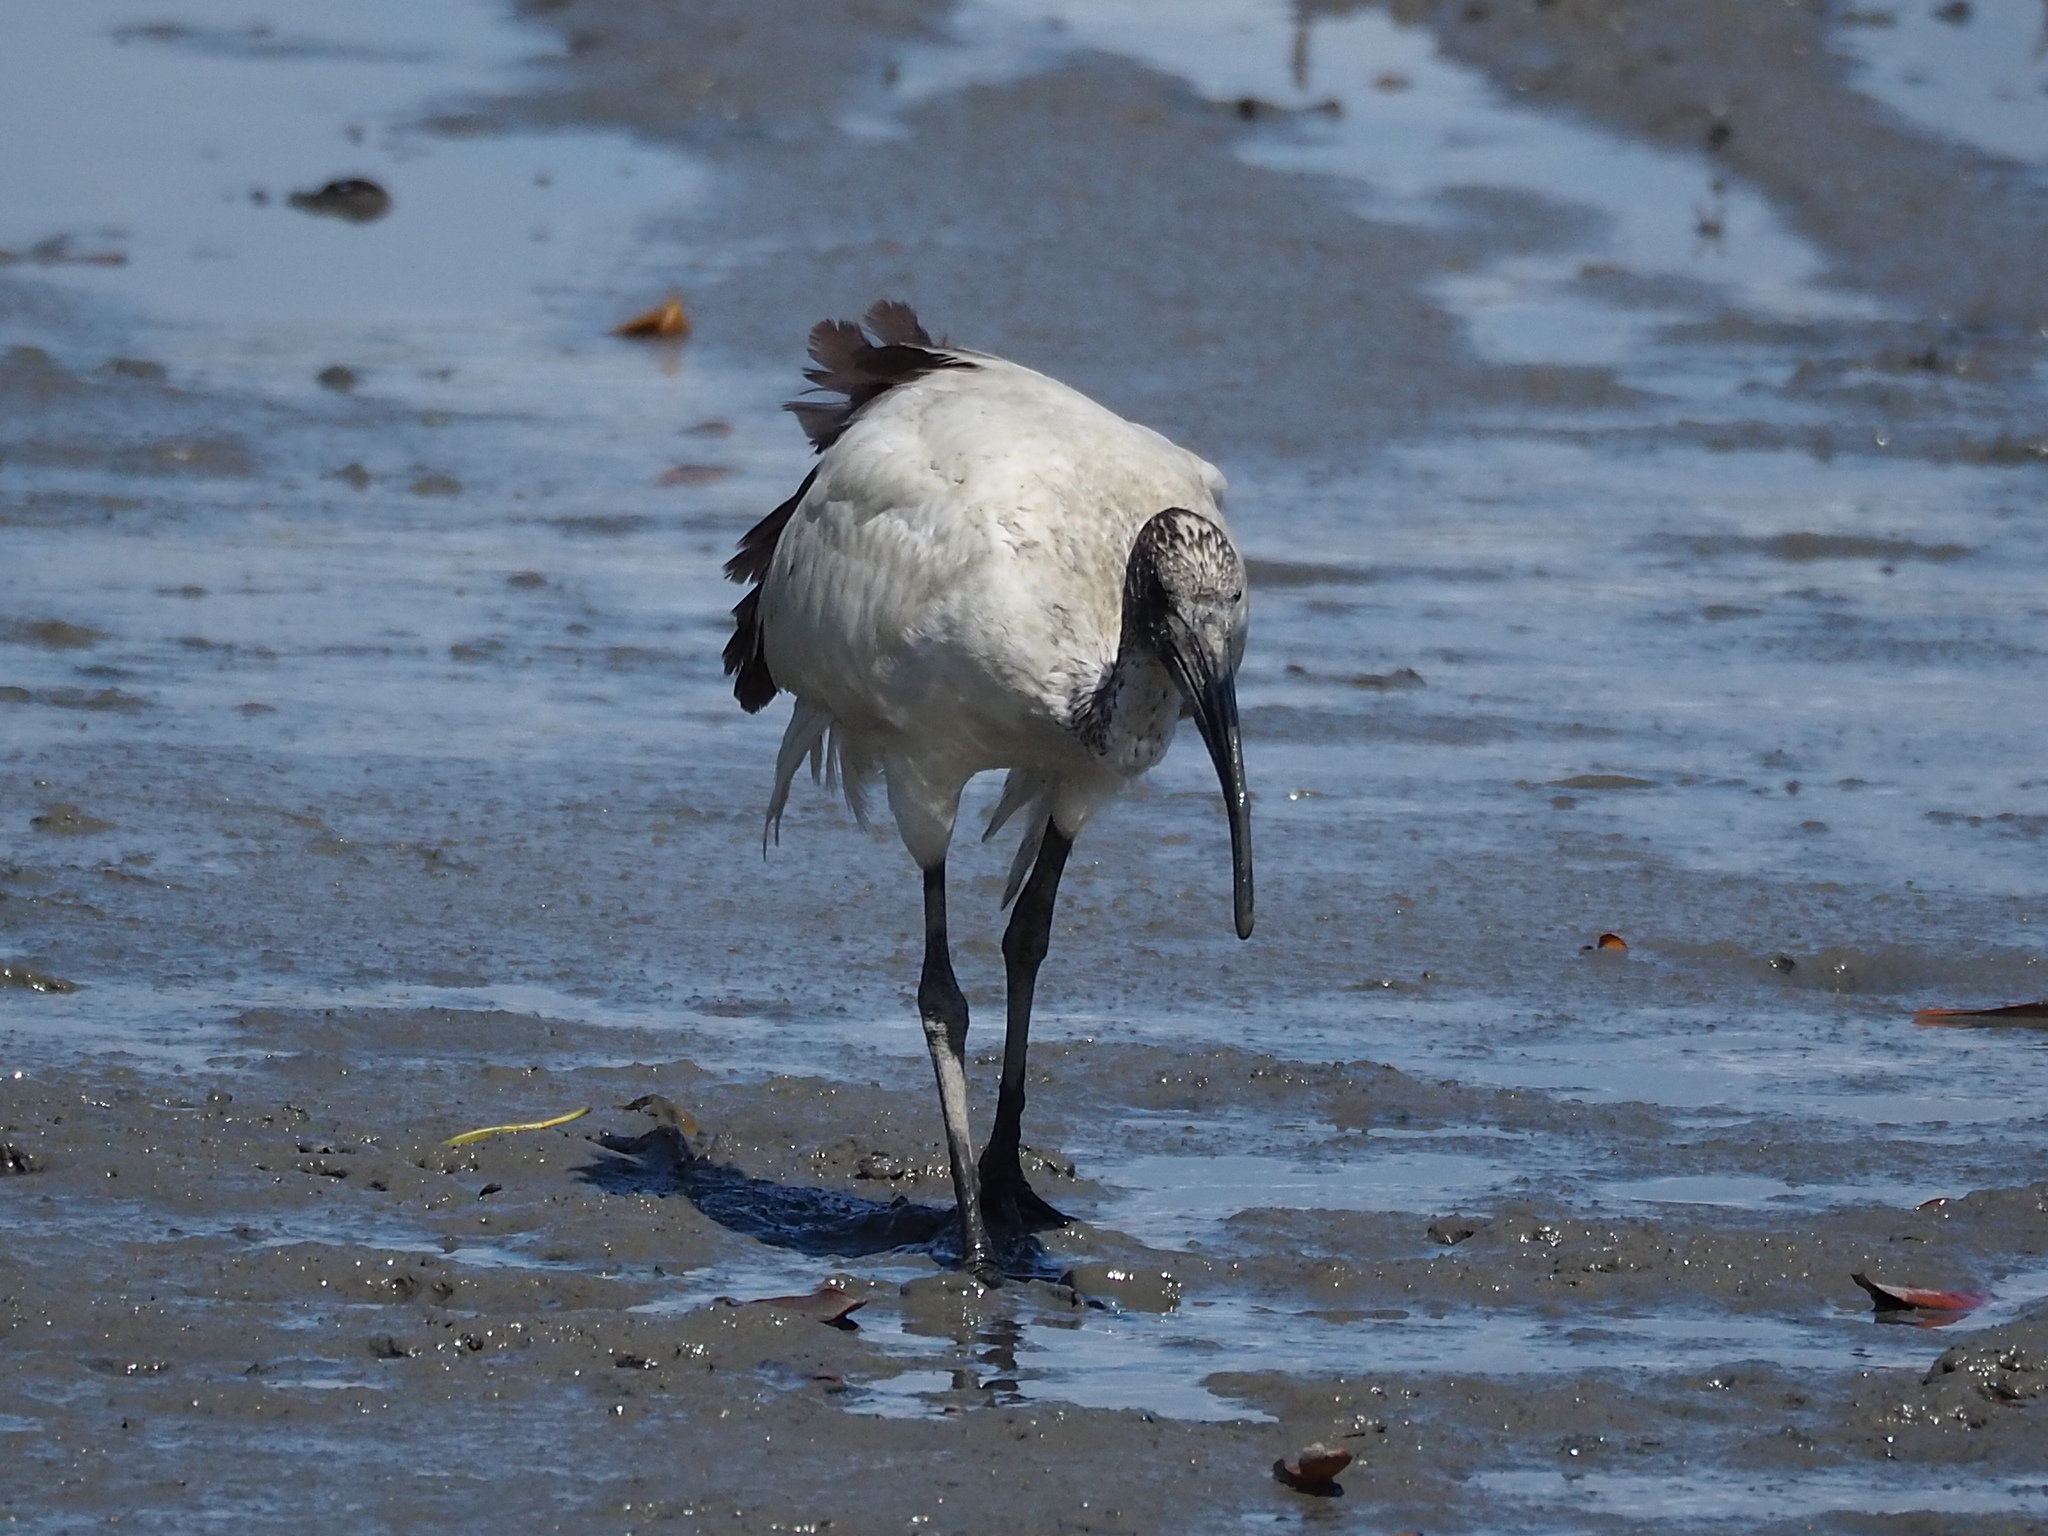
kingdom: Animalia
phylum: Chordata
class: Aves
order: Pelecaniformes
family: Threskiornithidae
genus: Threskiornis
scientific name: Threskiornis aethiopicus
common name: Sacred ibis
